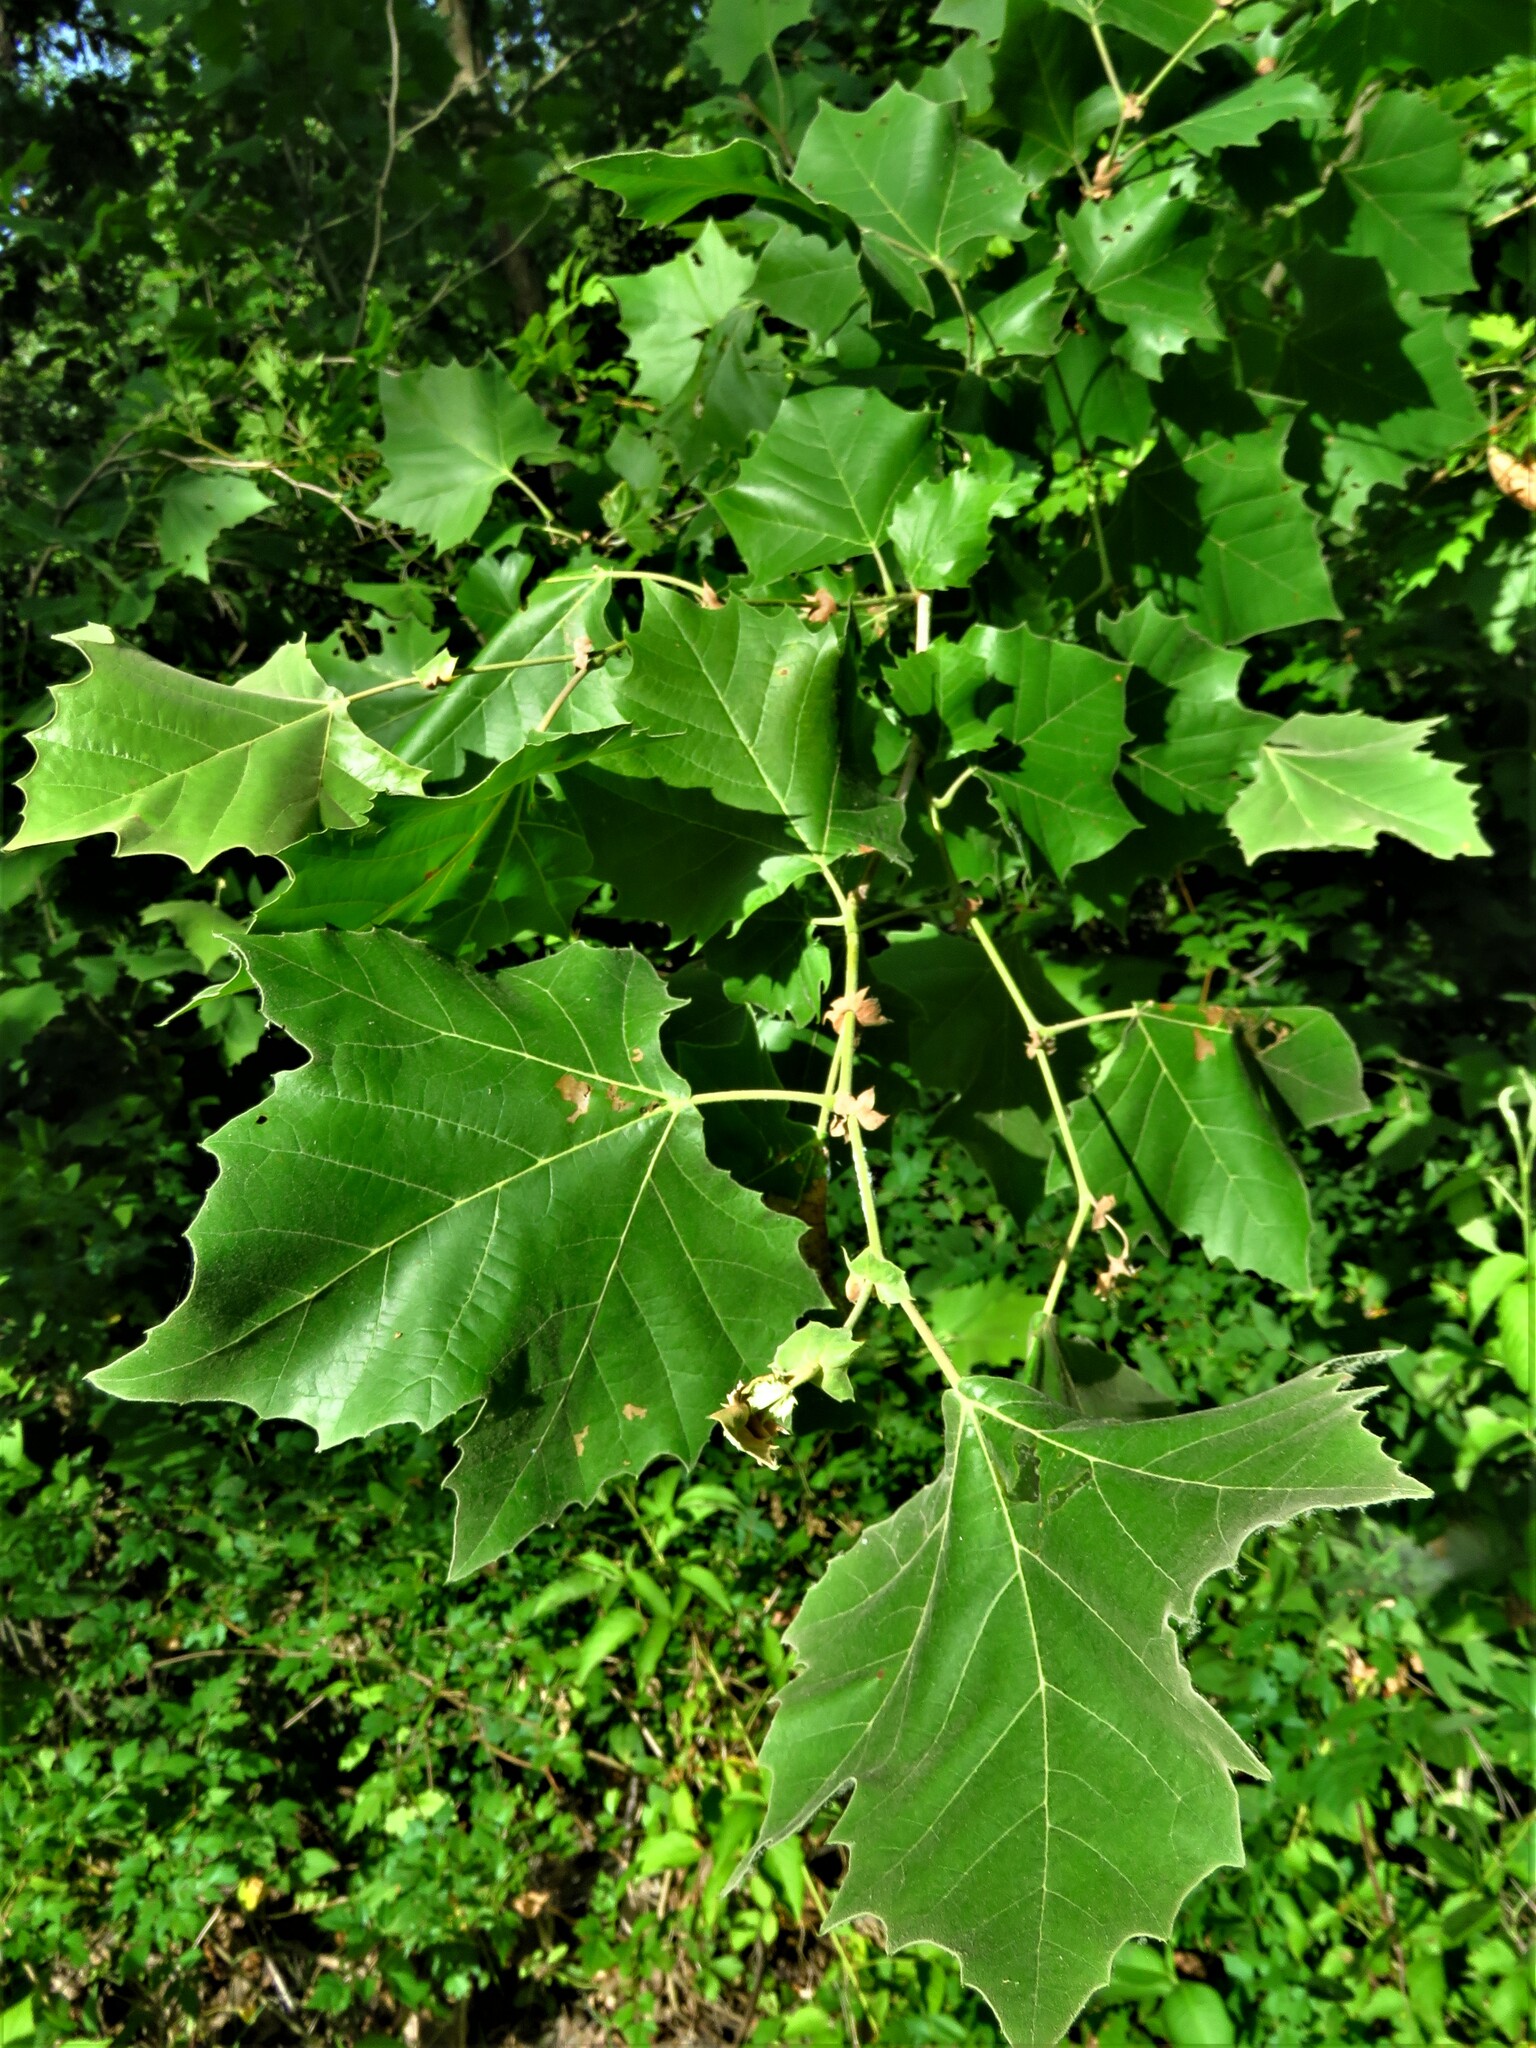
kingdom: Plantae
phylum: Tracheophyta
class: Magnoliopsida
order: Proteales
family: Platanaceae
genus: Platanus
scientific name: Platanus occidentalis
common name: American sycamore
